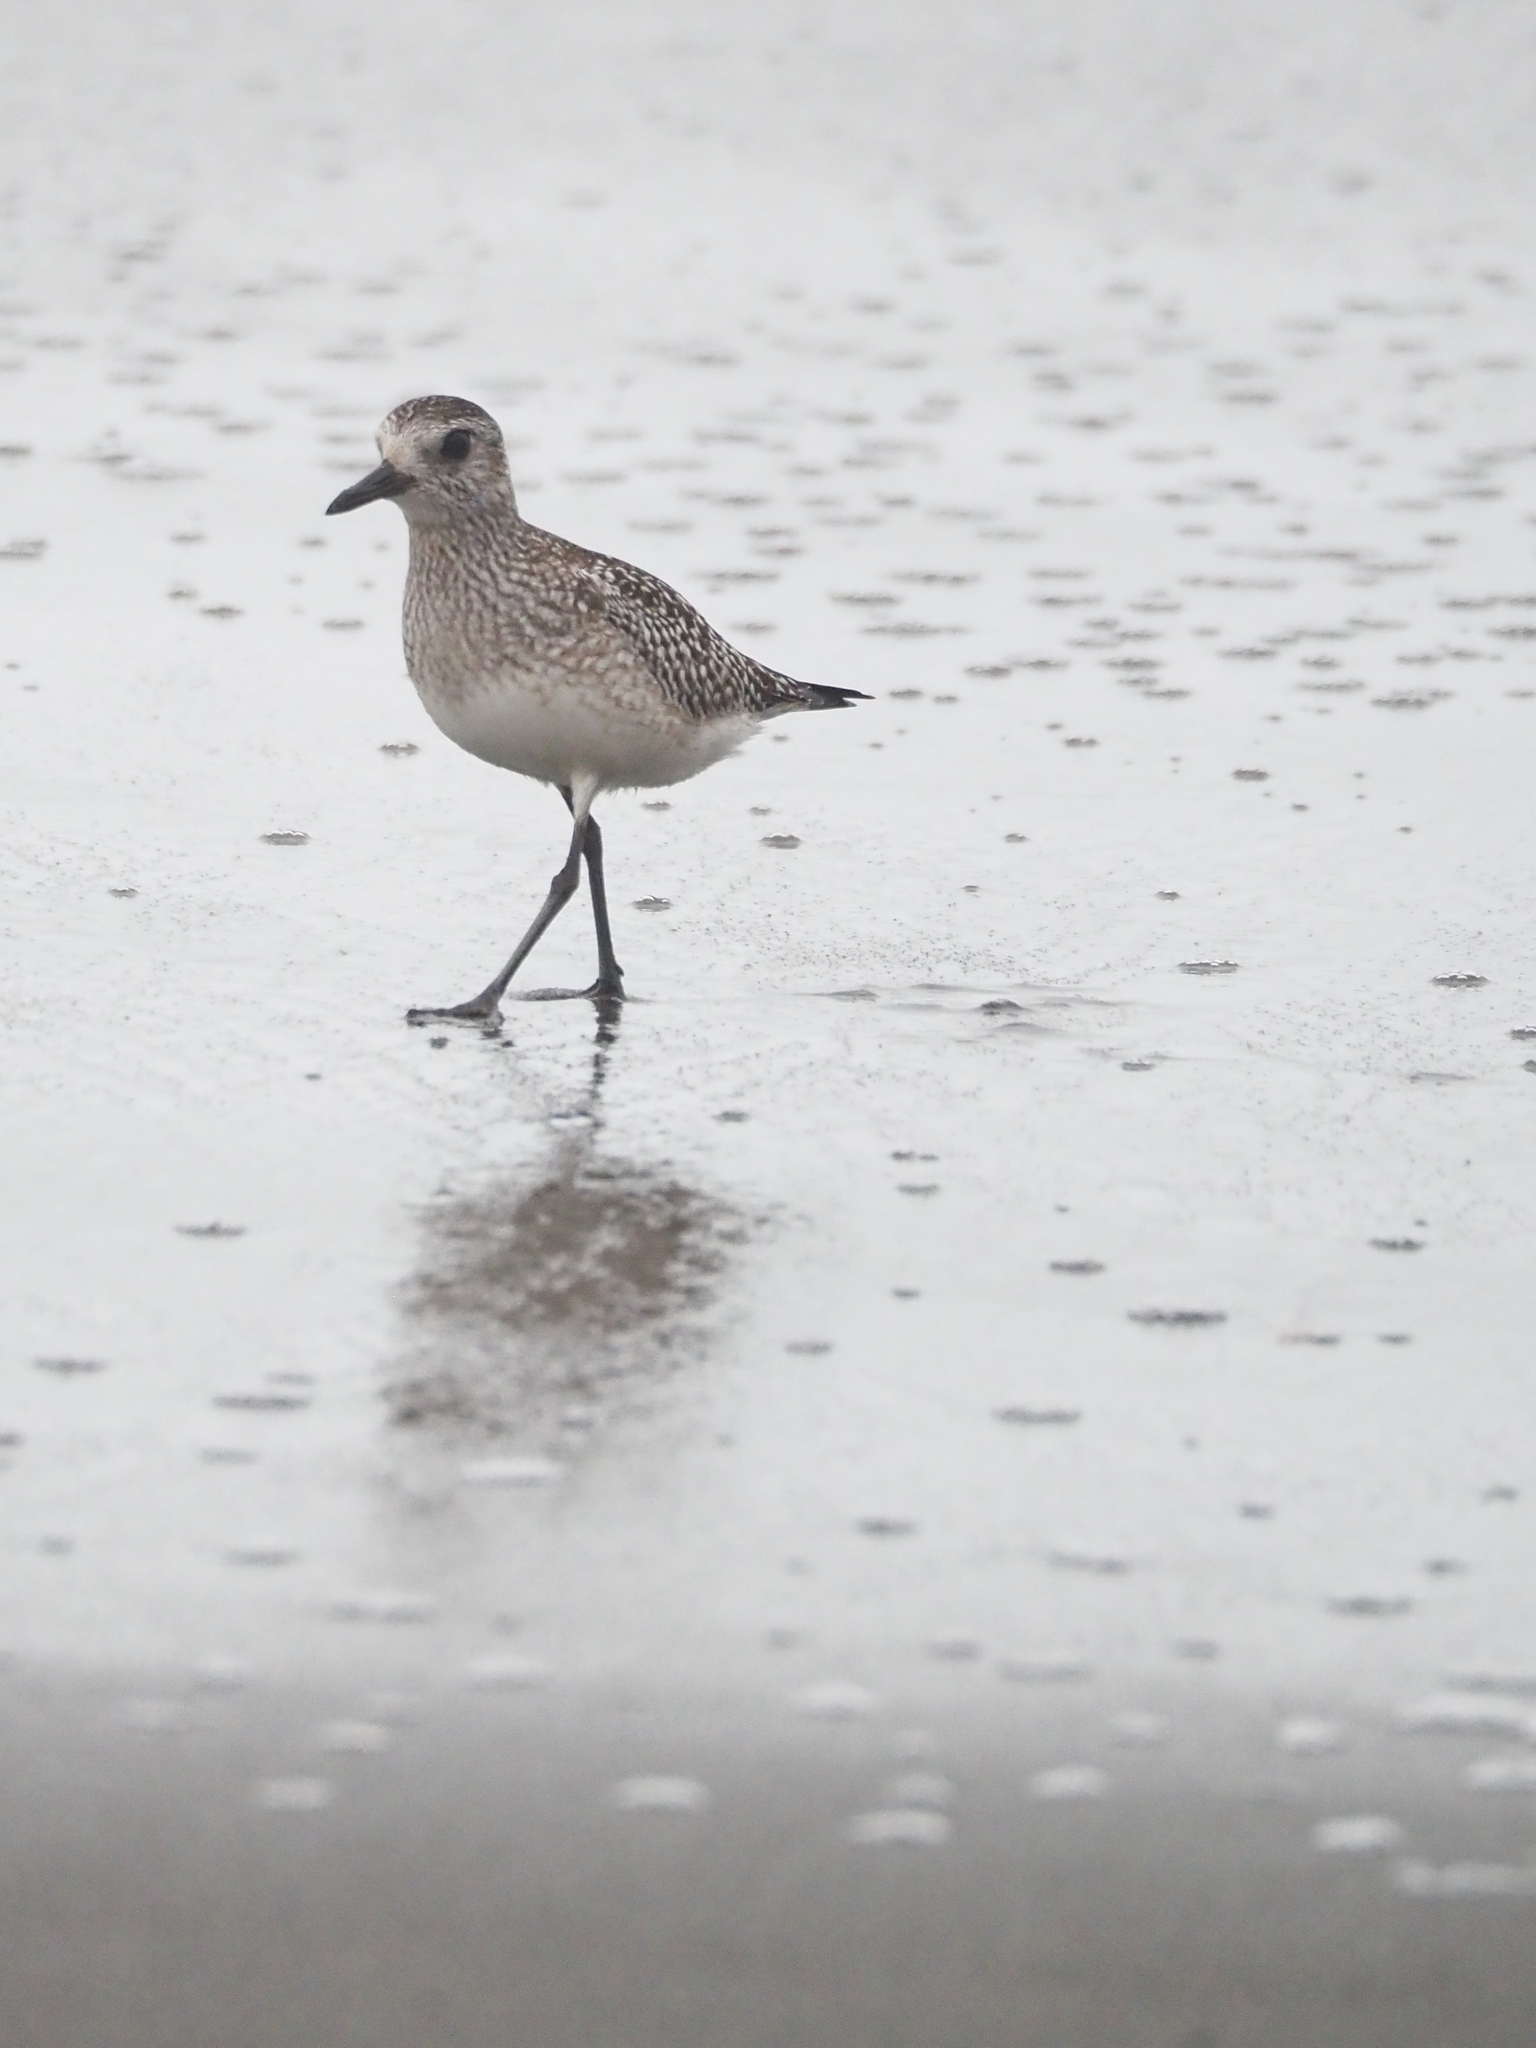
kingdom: Animalia
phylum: Chordata
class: Aves
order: Charadriiformes
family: Charadriidae
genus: Pluvialis
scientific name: Pluvialis squatarola
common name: Grey plover
